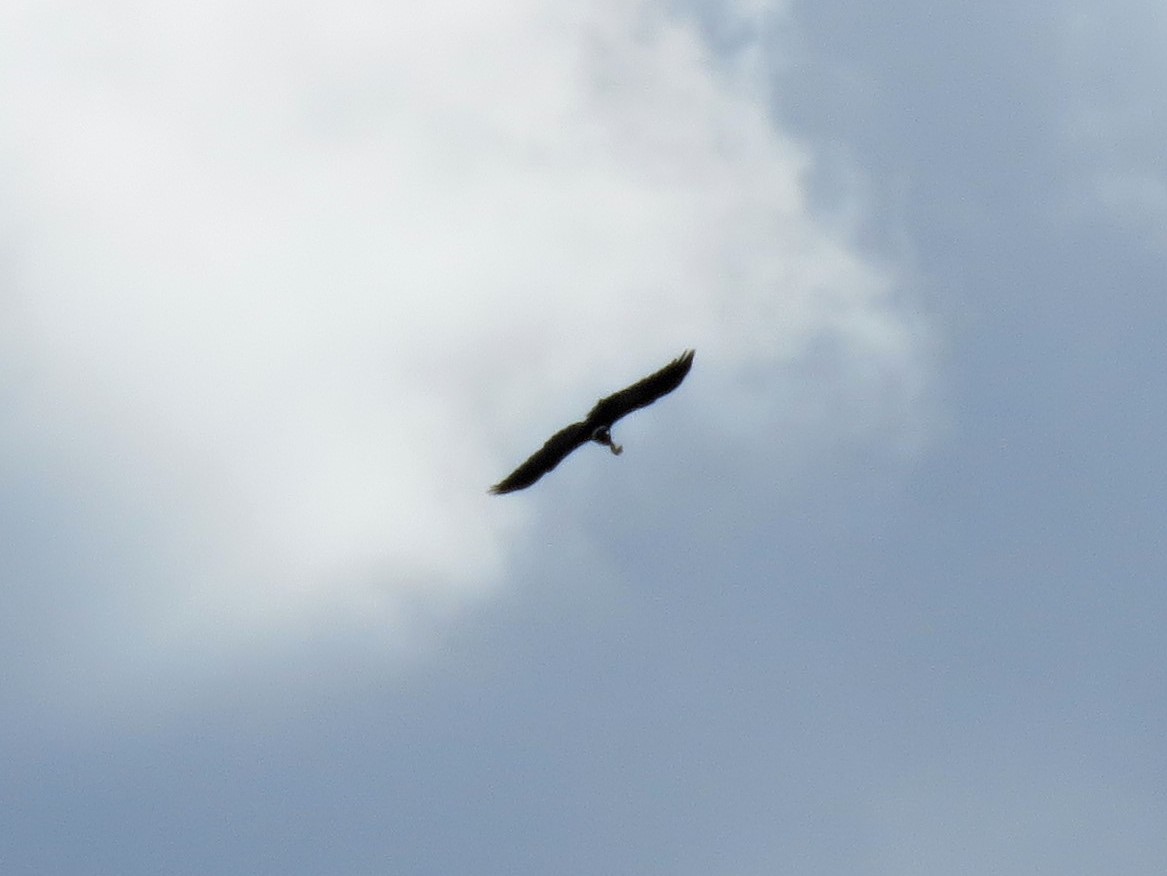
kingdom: Animalia
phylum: Chordata
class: Aves
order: Passeriformes
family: Corvidae
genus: Corvus
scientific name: Corvus albicollis
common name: White-necked raven
